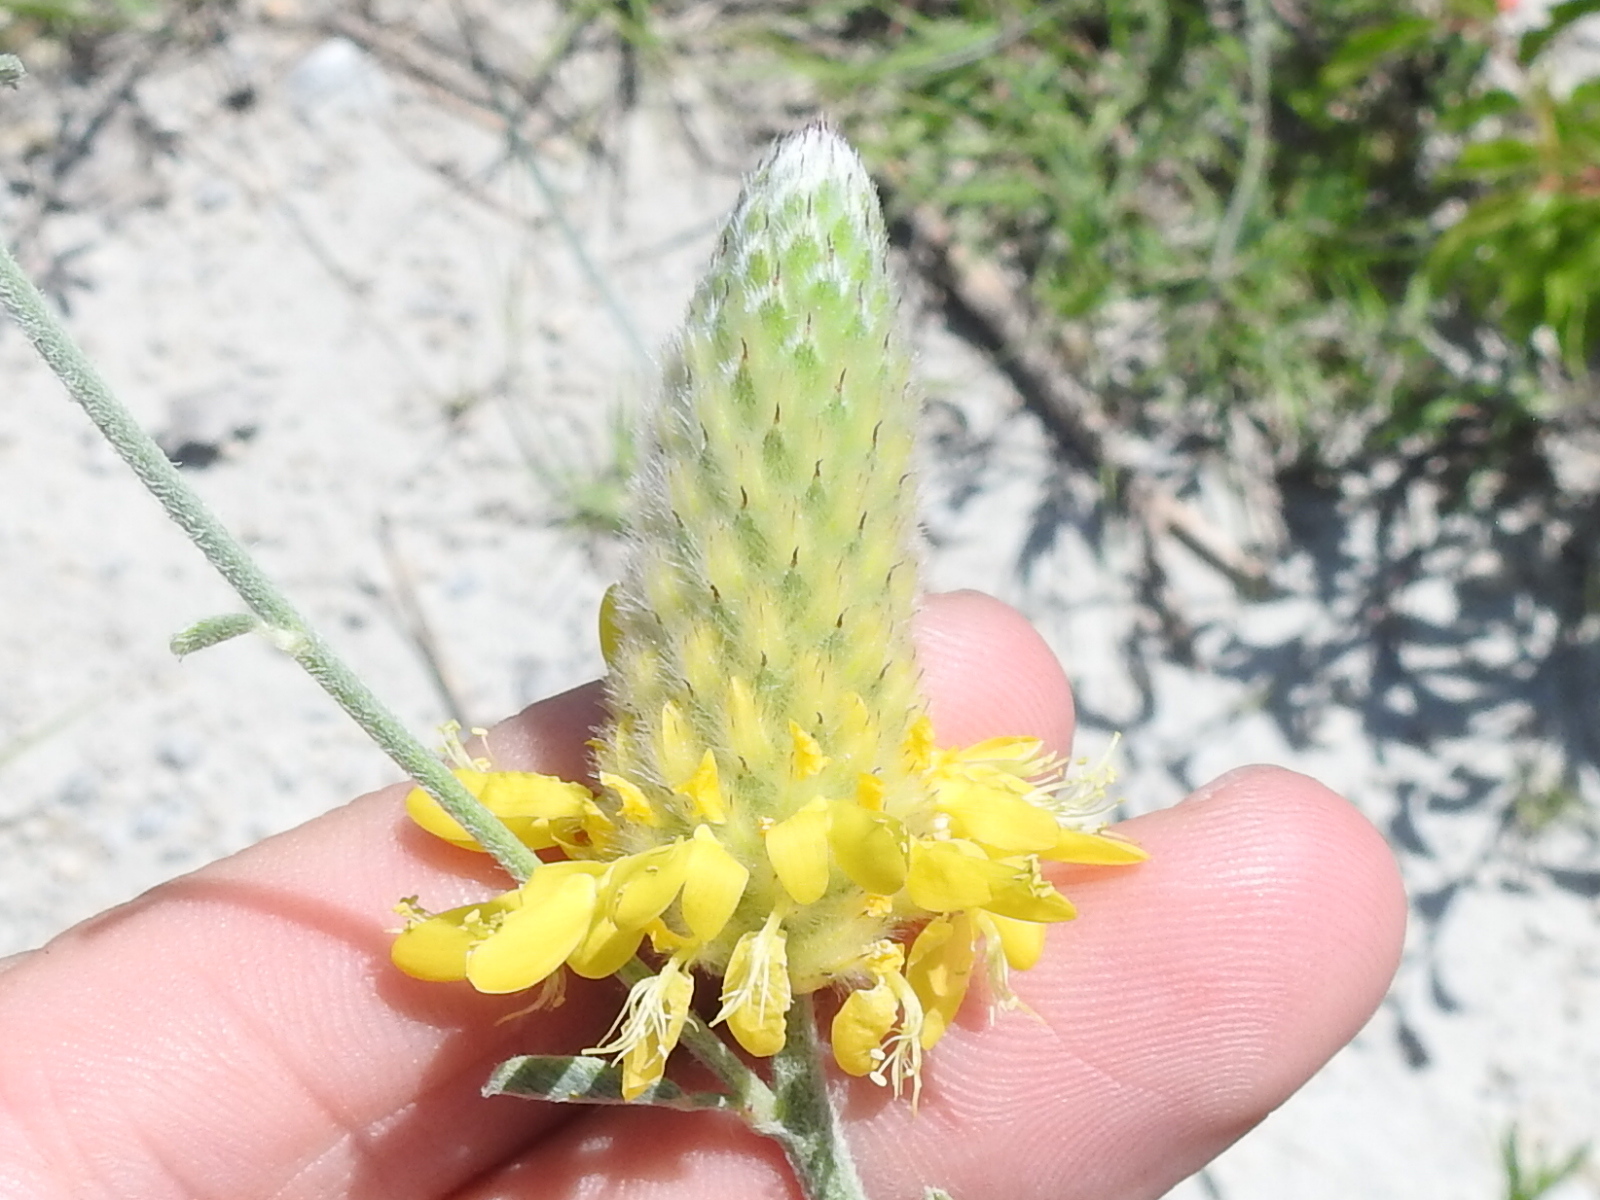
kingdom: Plantae
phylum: Tracheophyta
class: Magnoliopsida
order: Fabales
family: Fabaceae
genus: Dalea
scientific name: Dalea aurea
